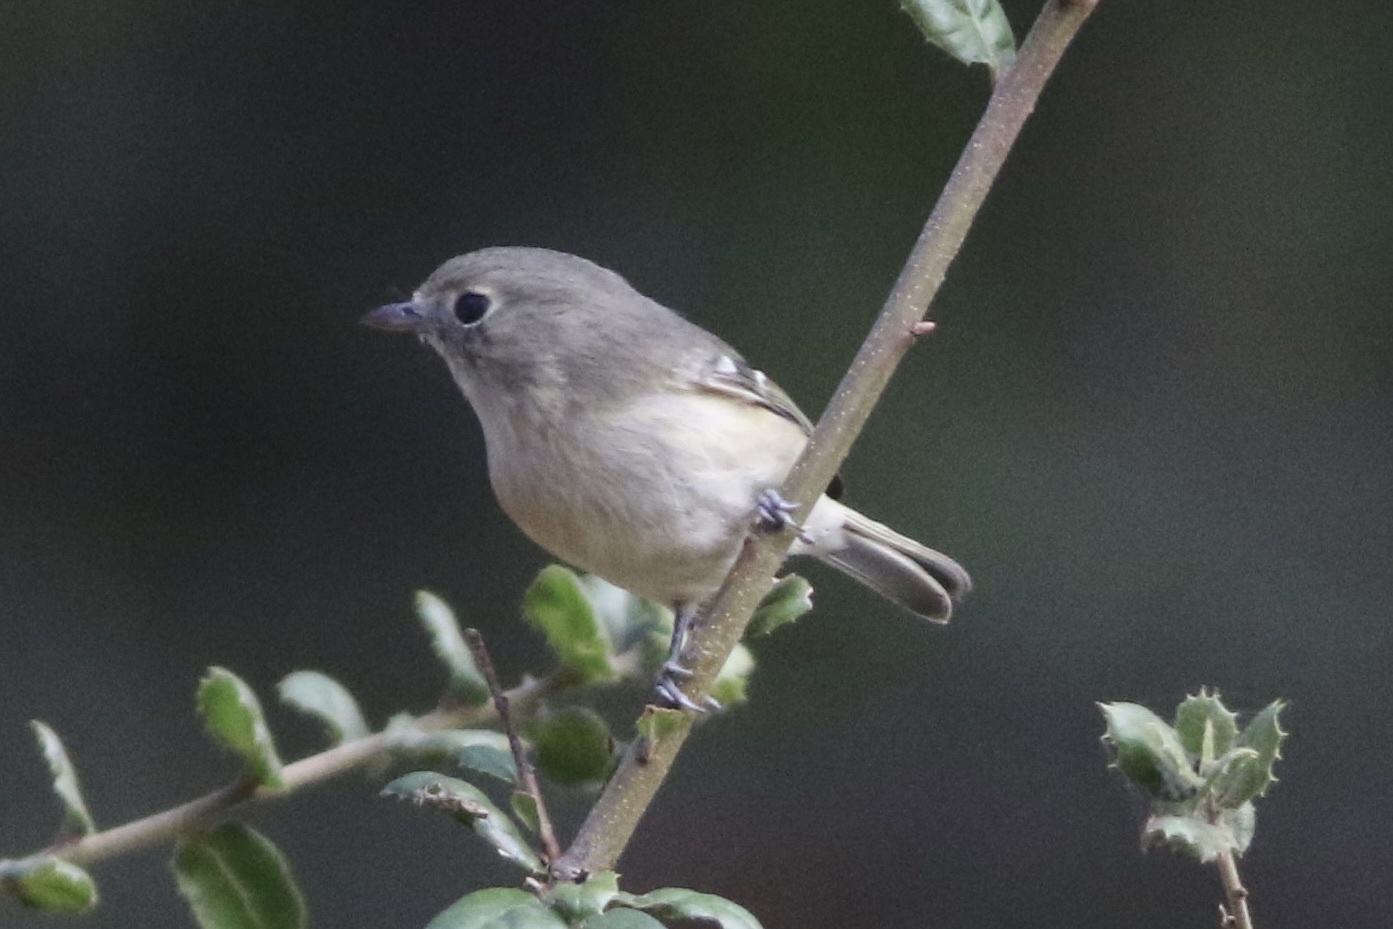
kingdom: Animalia
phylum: Chordata
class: Aves
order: Passeriformes
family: Vireonidae
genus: Vireo
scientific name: Vireo huttoni
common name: Hutton's vireo
